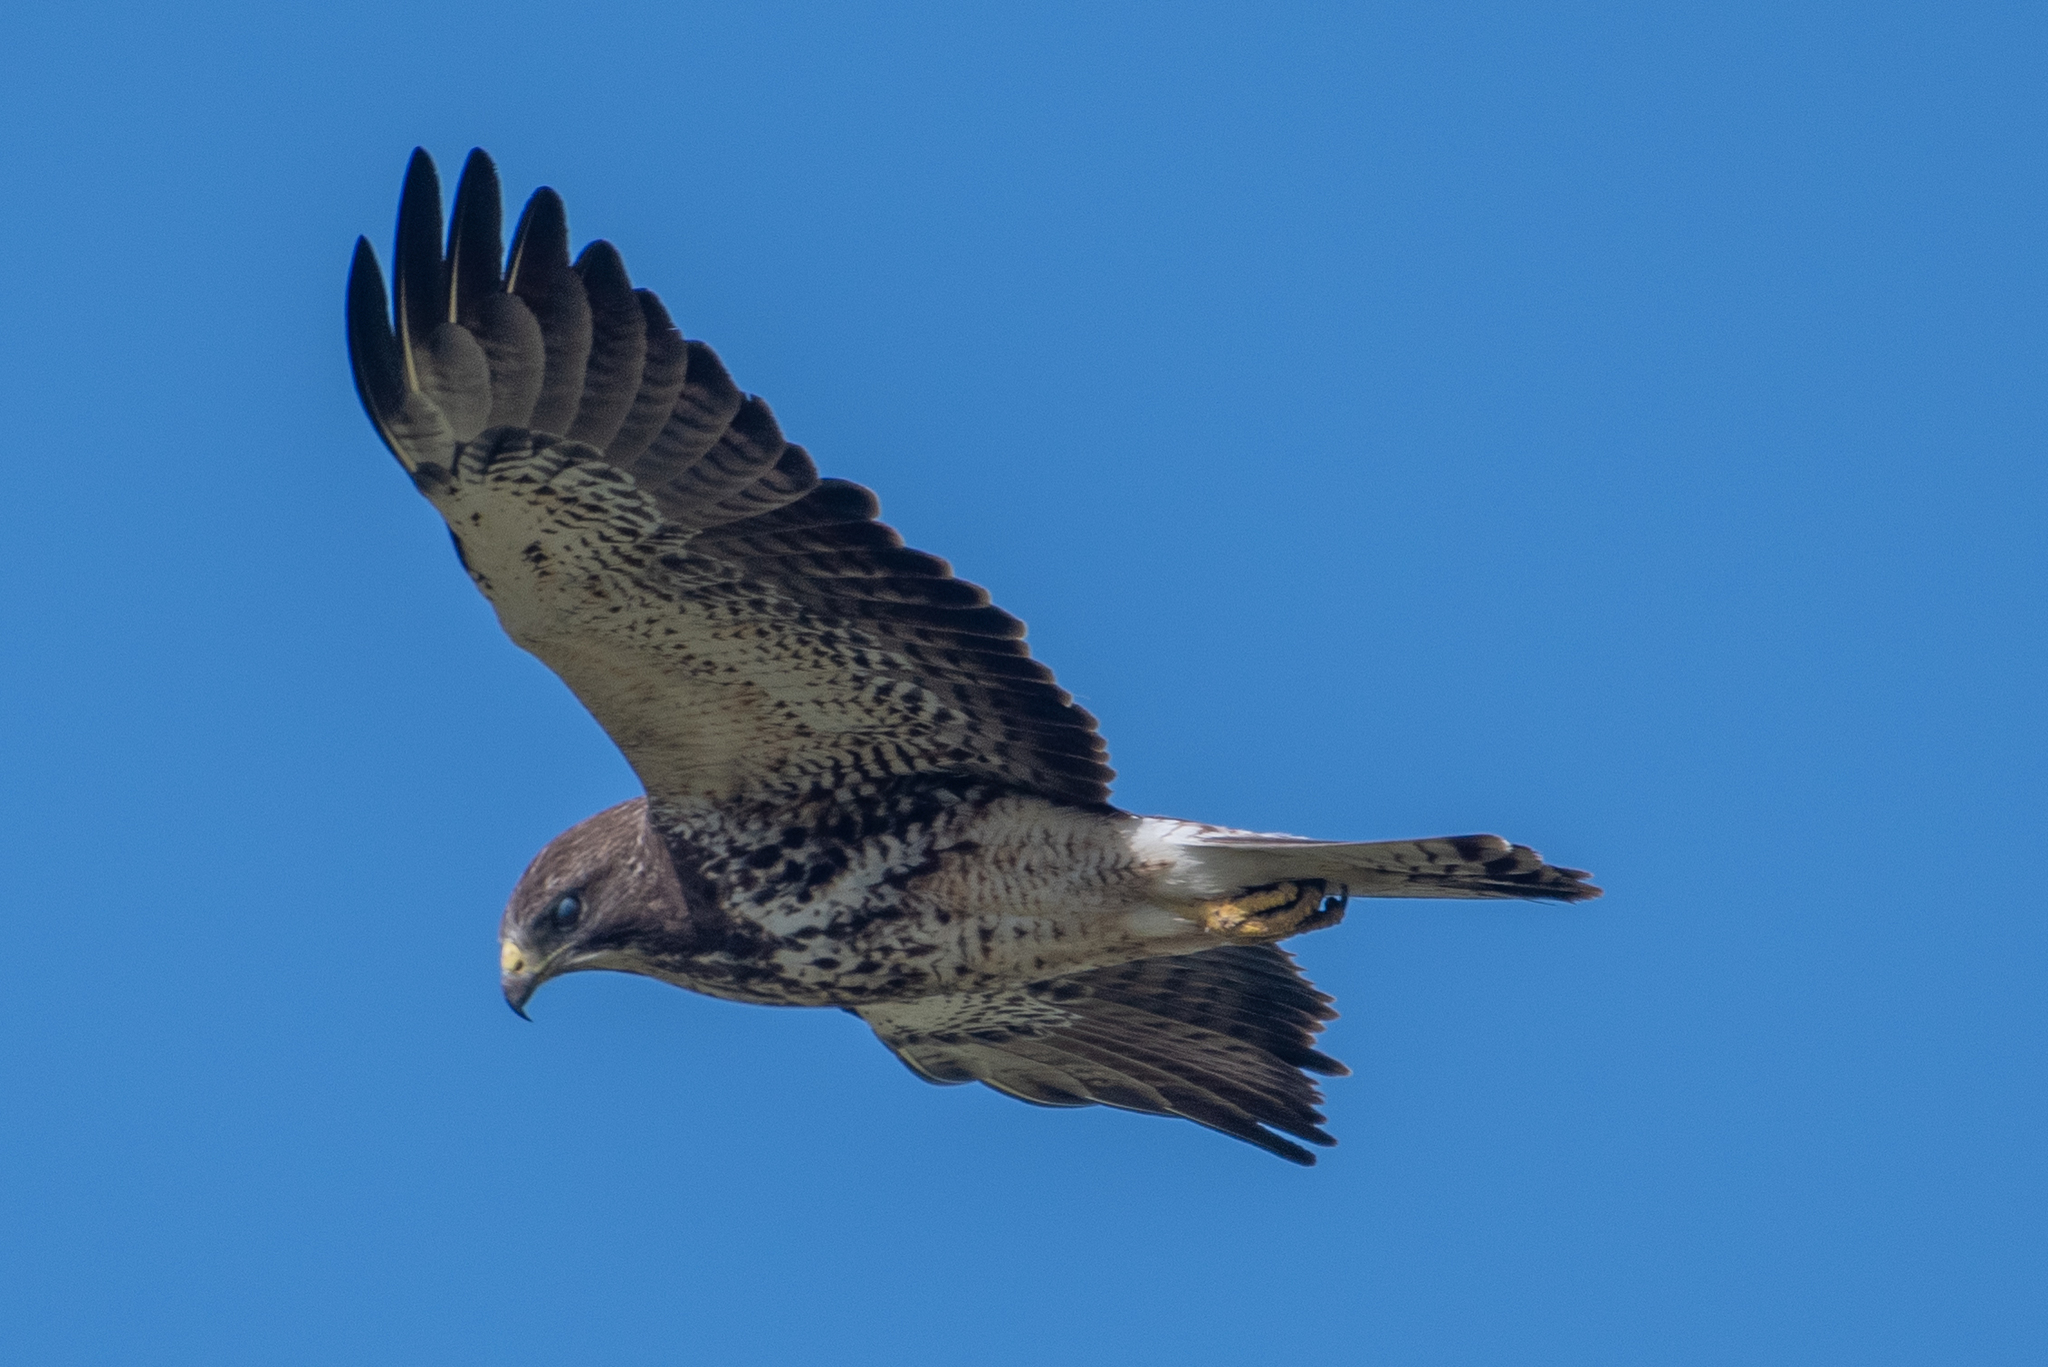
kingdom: Animalia
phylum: Chordata
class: Aves
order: Accipitriformes
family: Accipitridae
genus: Buteo
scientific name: Buteo swainsoni
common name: Swainson's hawk
